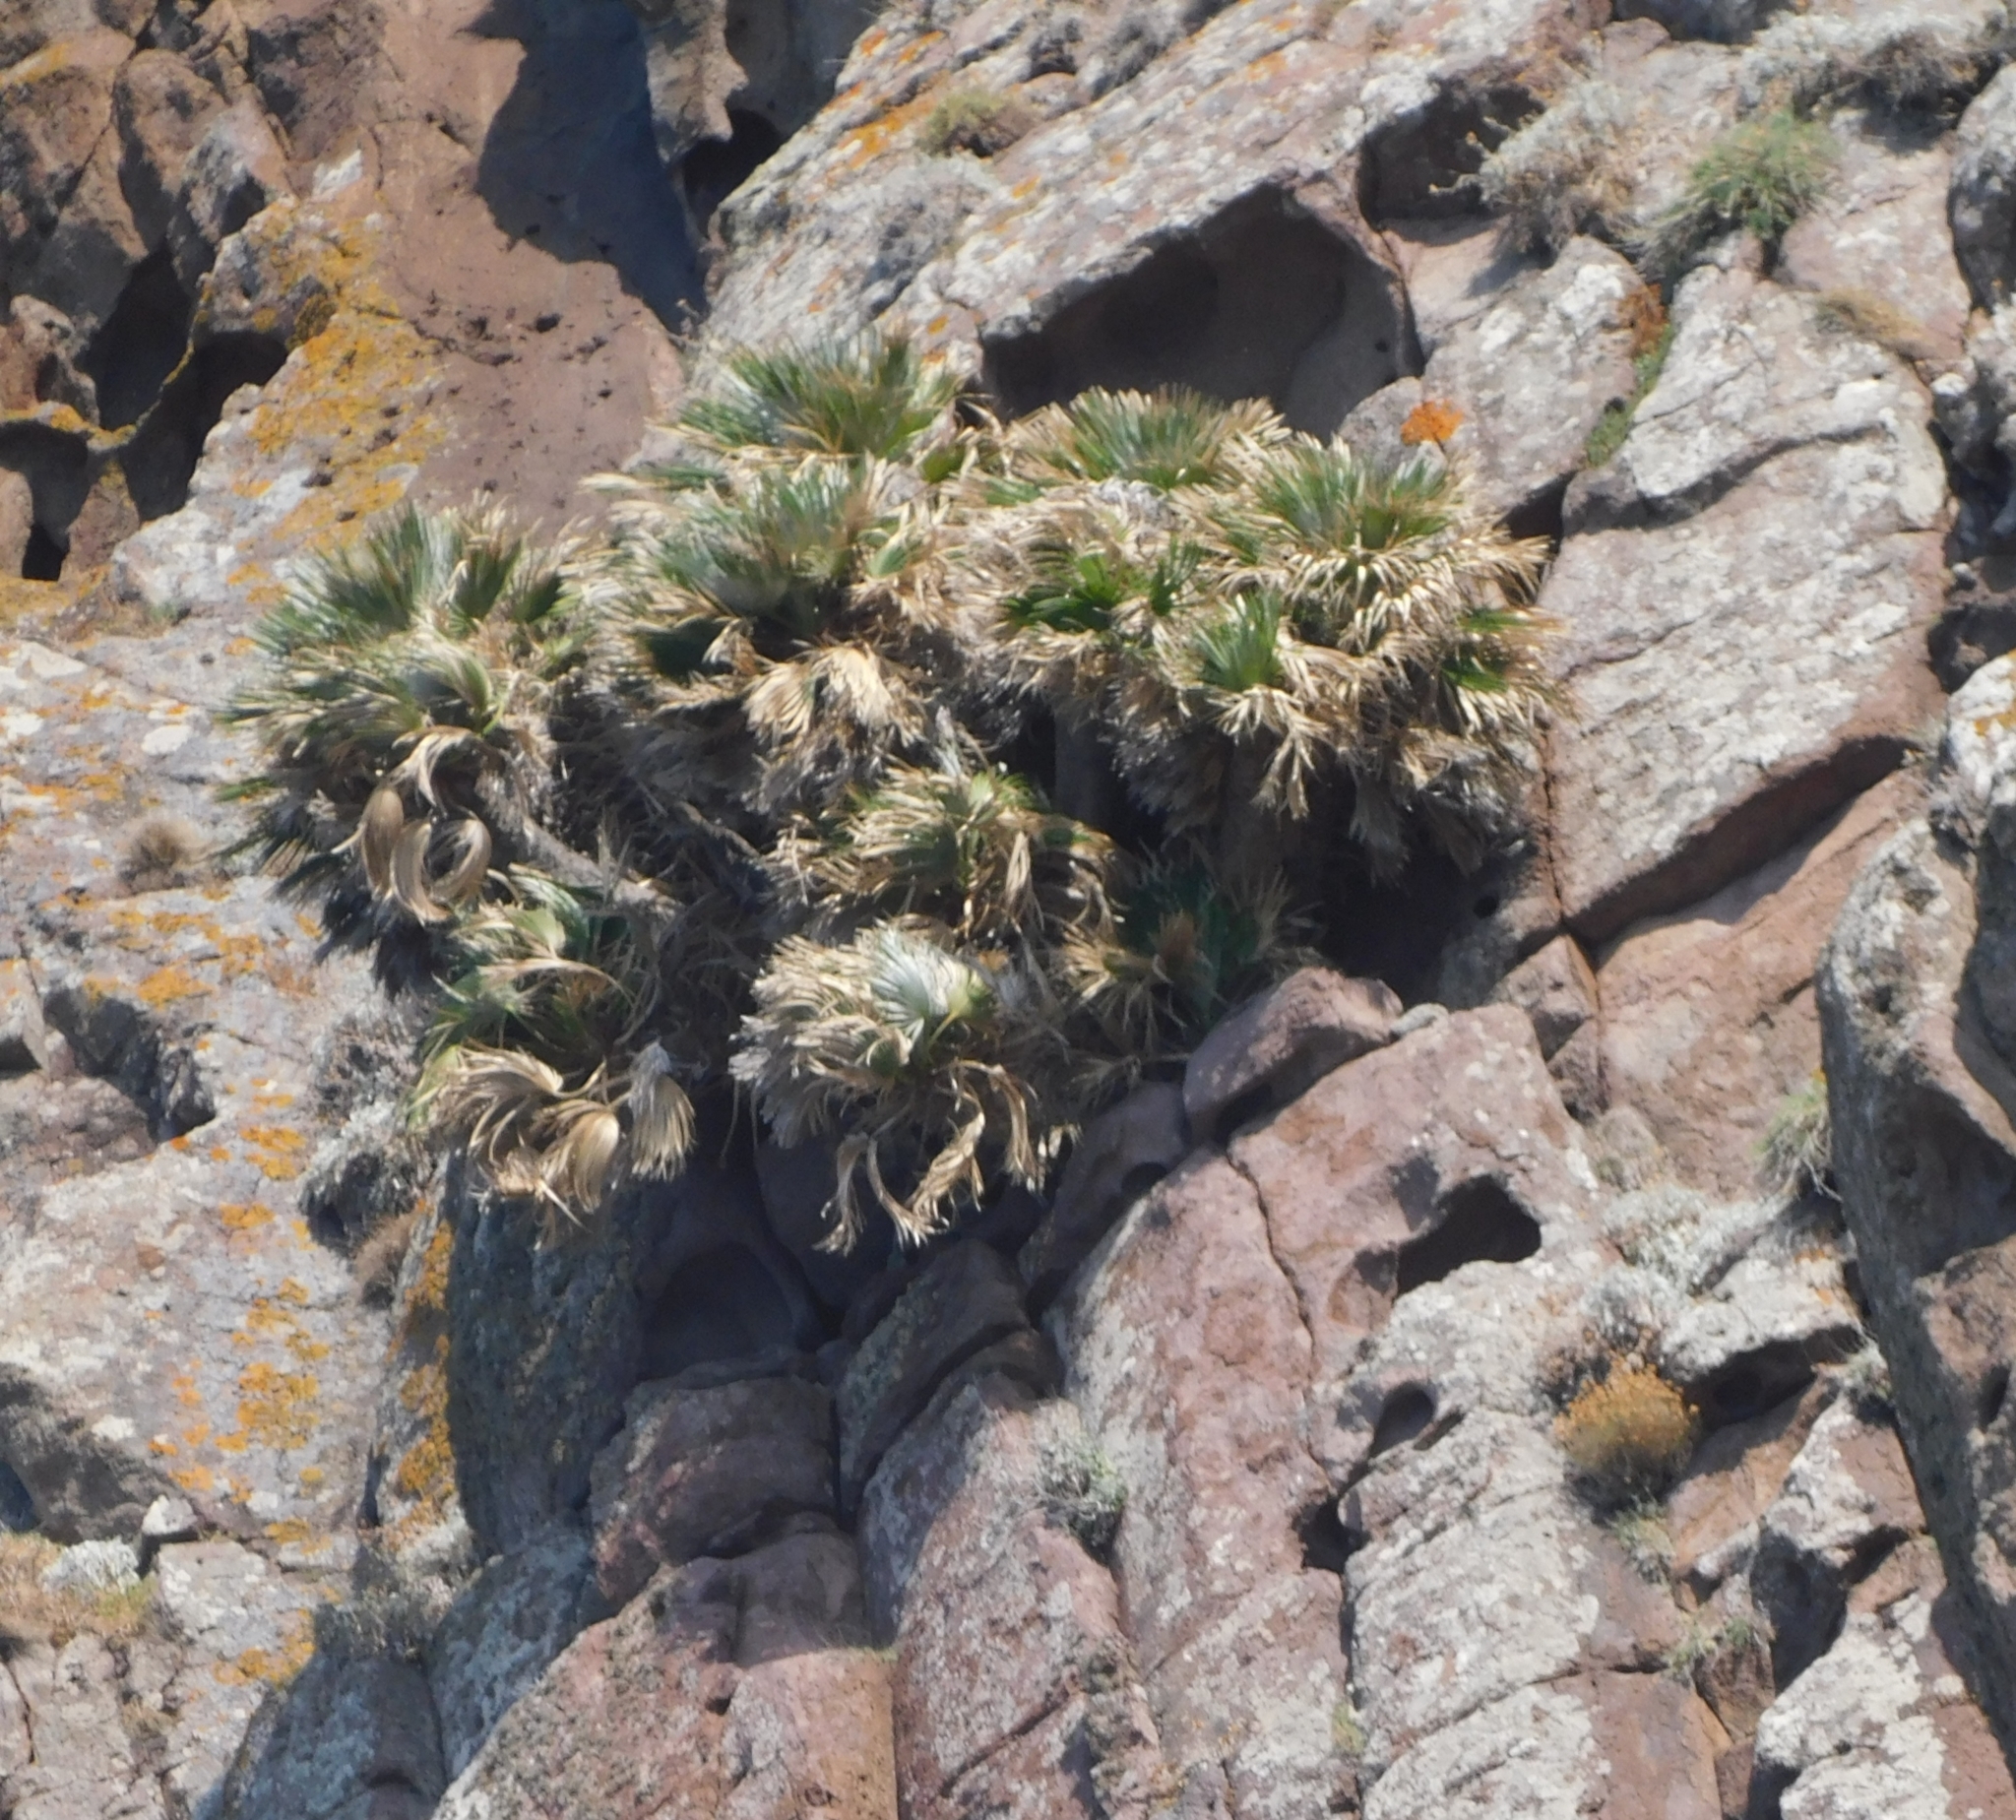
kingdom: Plantae
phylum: Tracheophyta
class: Liliopsida
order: Arecales
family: Arecaceae
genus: Chamaerops
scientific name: Chamaerops humilis
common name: Dwarf fan palm
